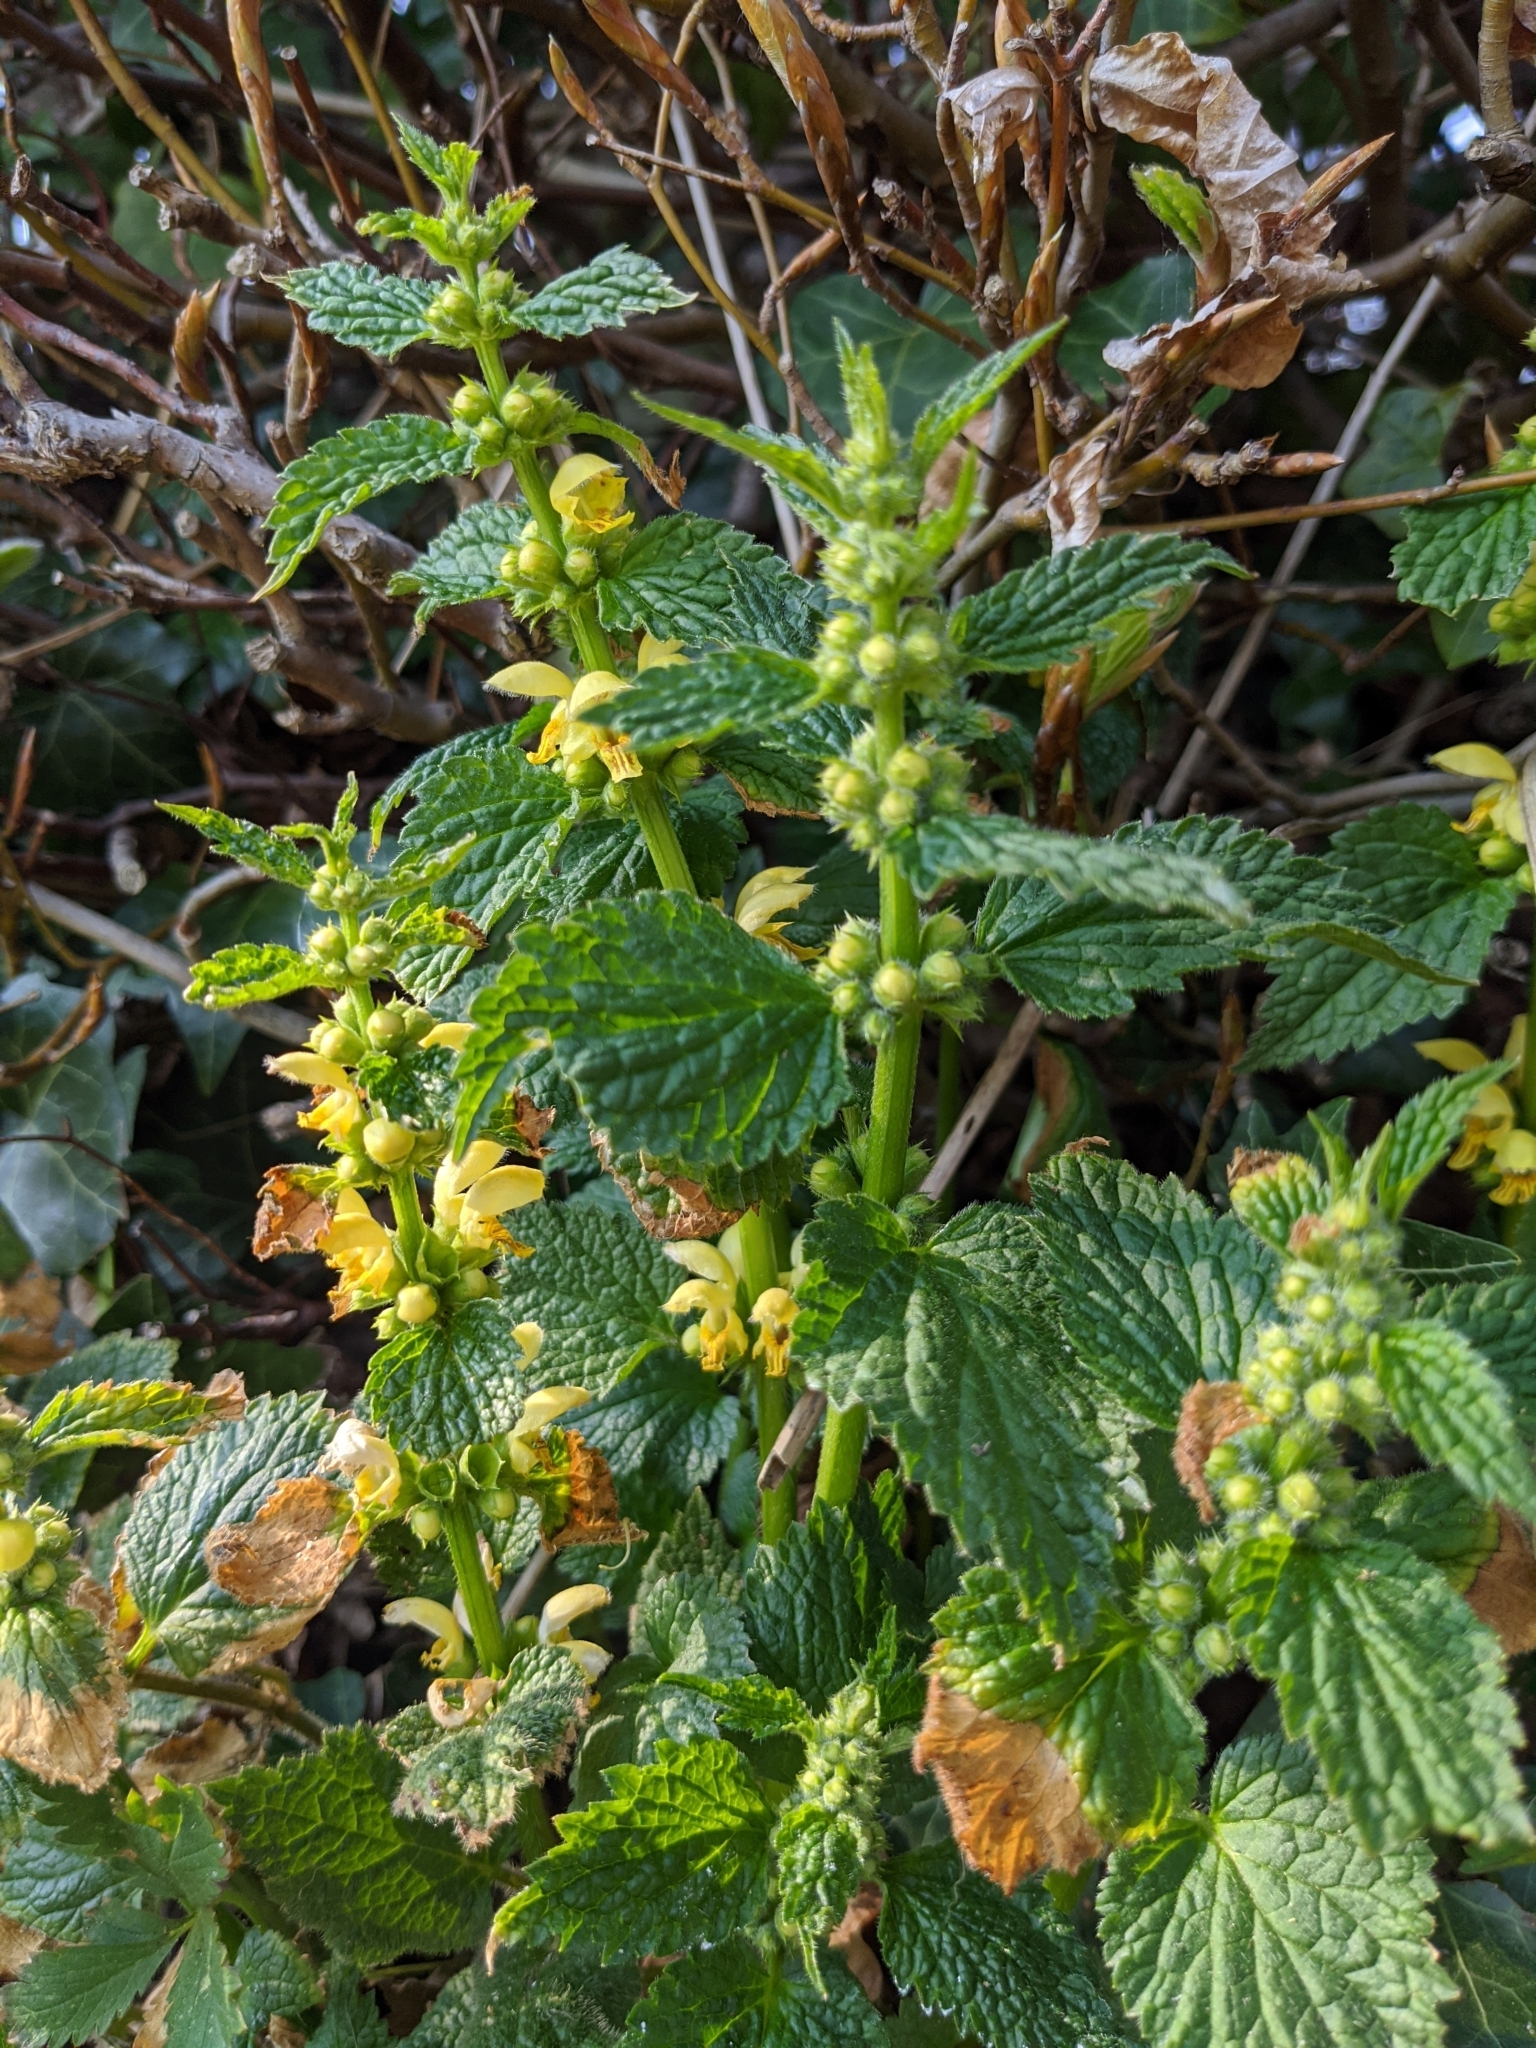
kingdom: Plantae
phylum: Tracheophyta
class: Magnoliopsida
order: Lamiales
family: Lamiaceae
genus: Lamium
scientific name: Lamium galeobdolon
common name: Yellow archangel
